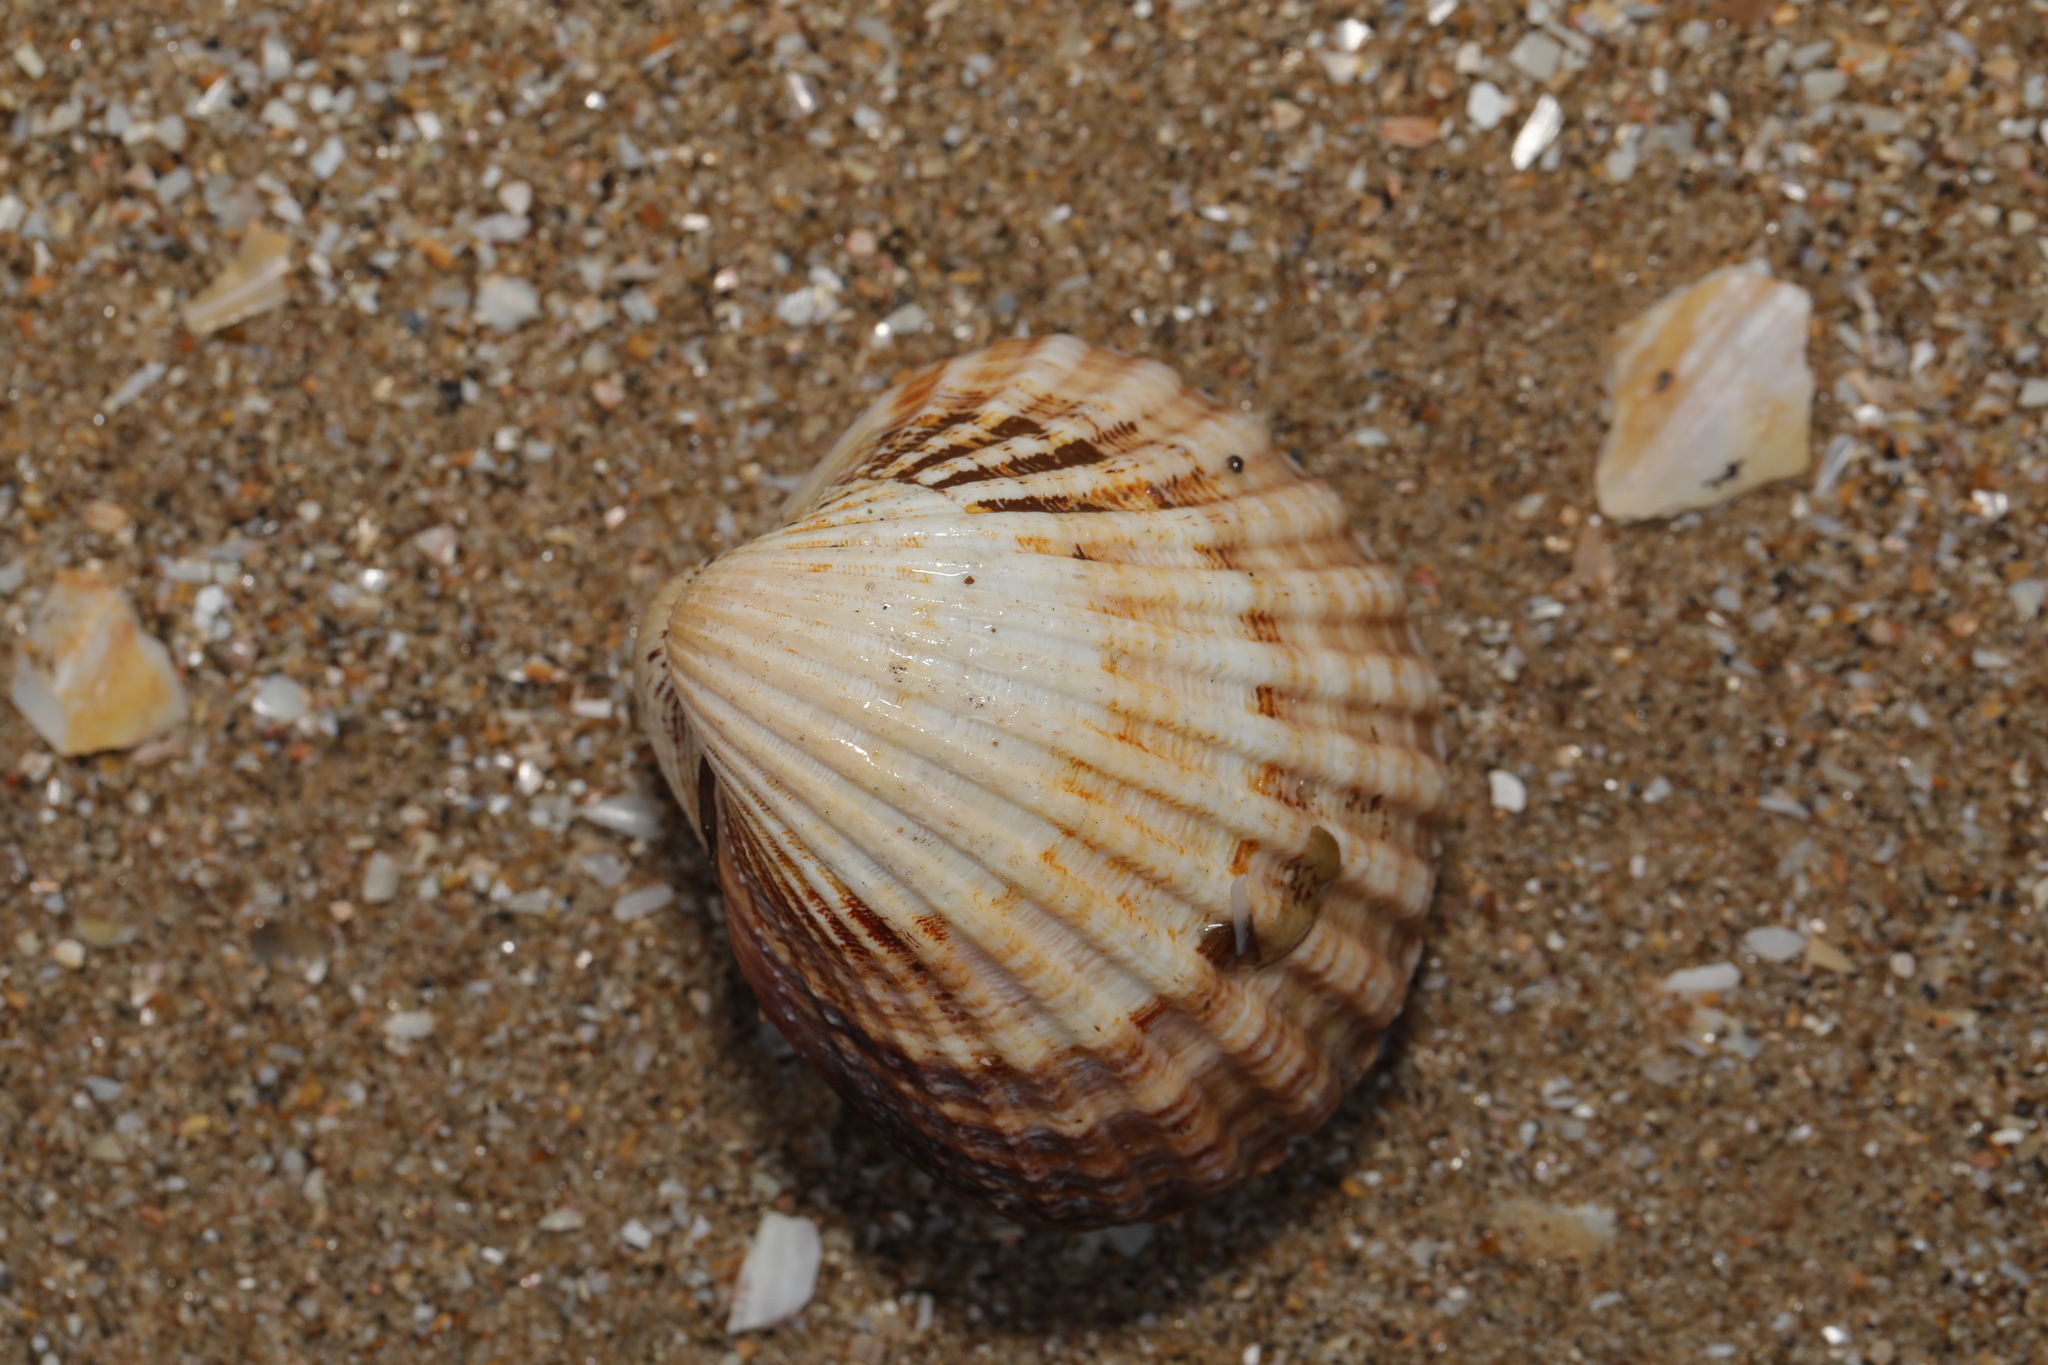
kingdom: Animalia
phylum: Mollusca
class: Bivalvia
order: Cardiida
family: Cardiidae
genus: Acanthocardia
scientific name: Acanthocardia echinata
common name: Prickly cockle
